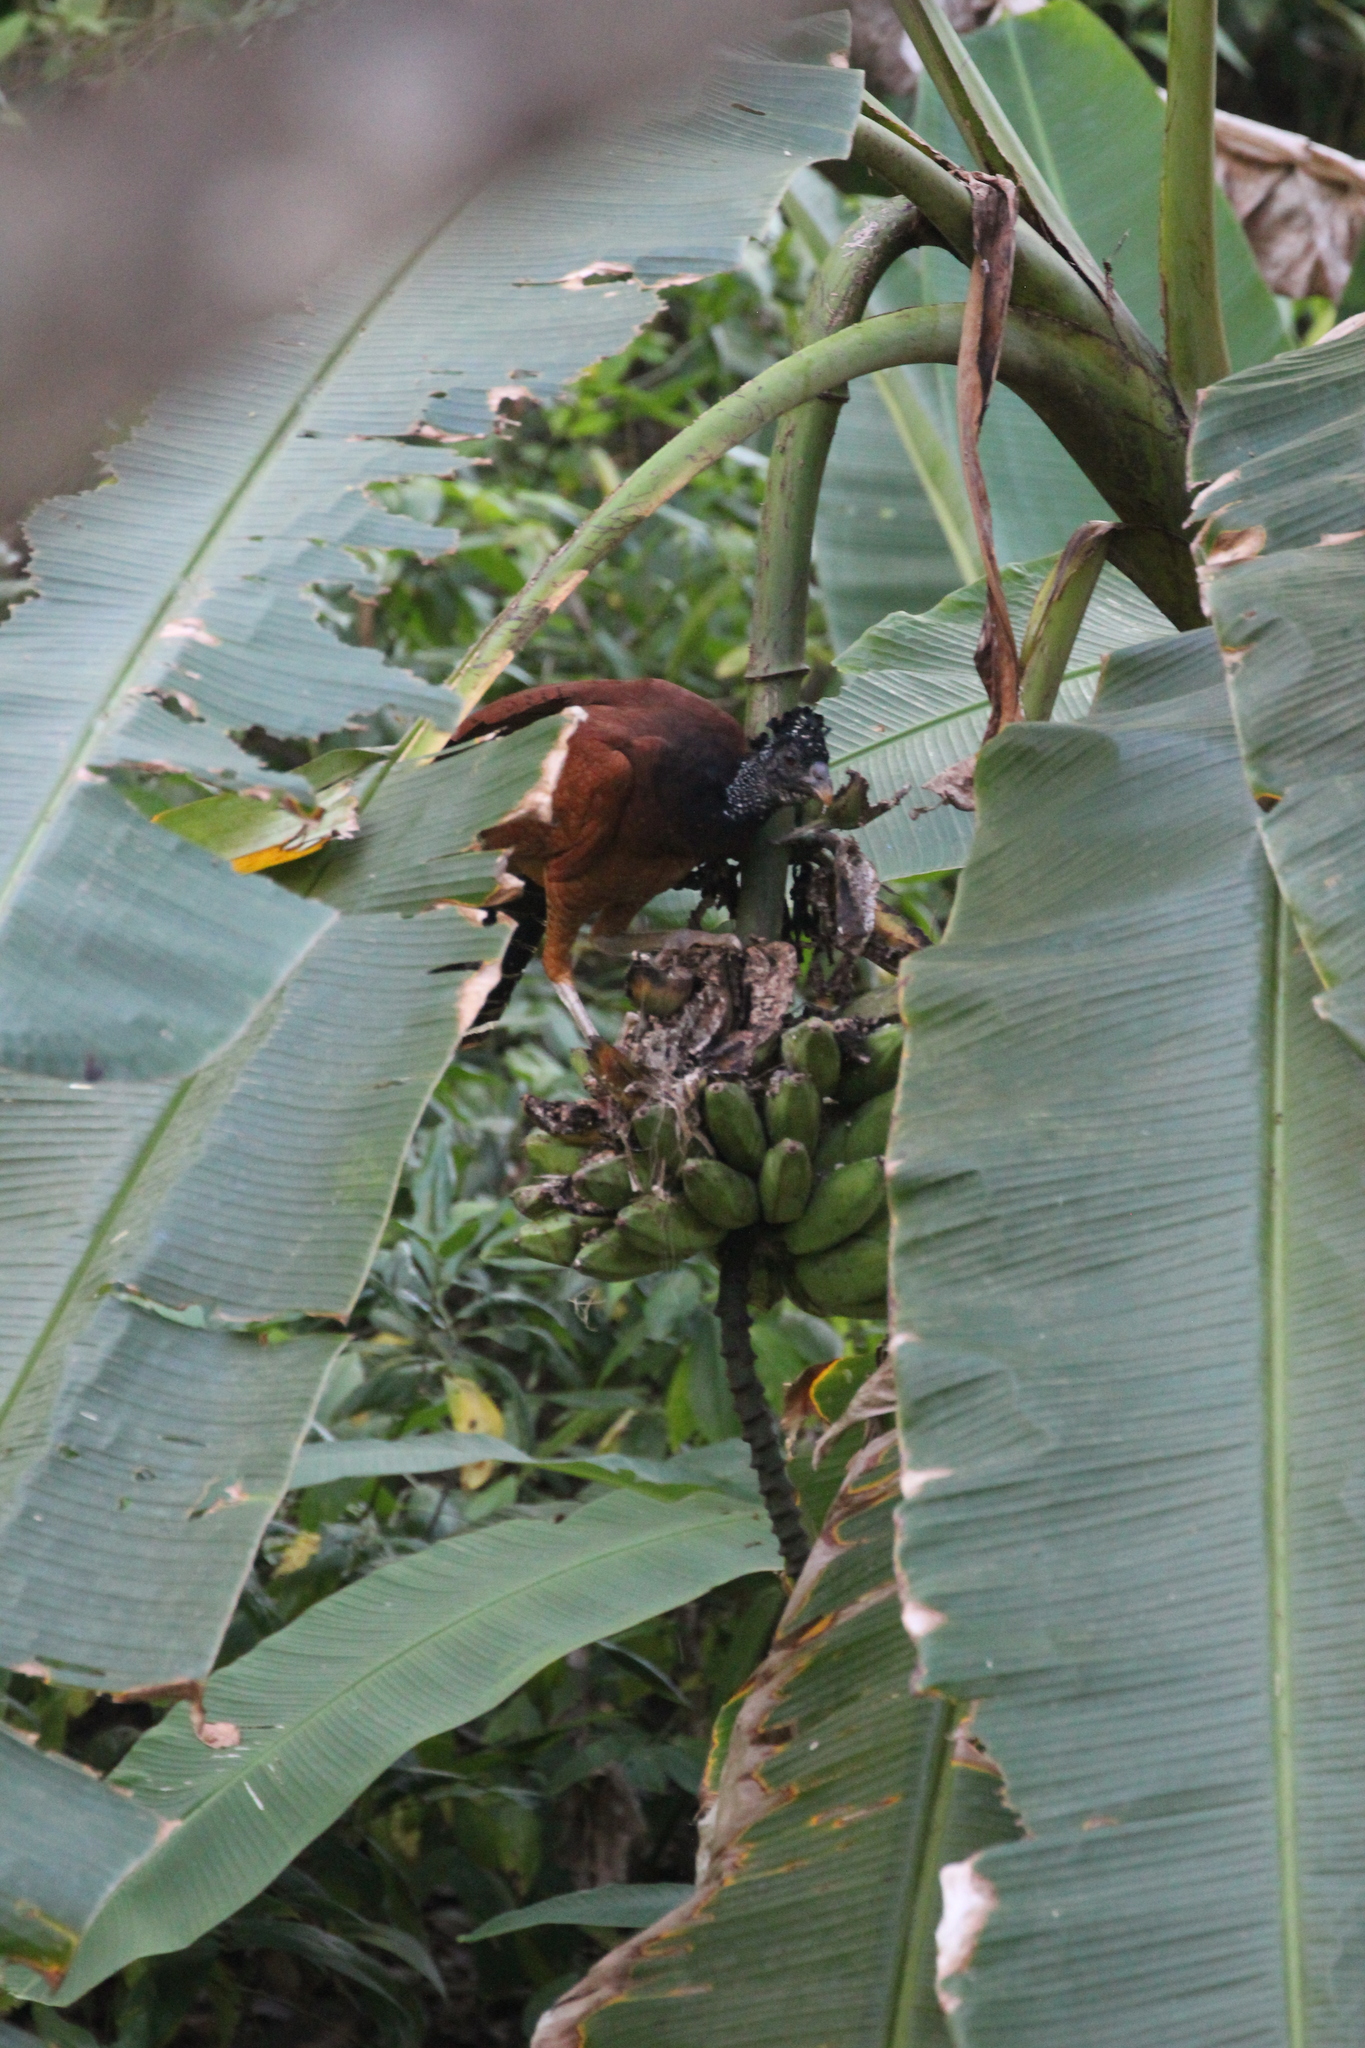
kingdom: Animalia
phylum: Chordata
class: Aves
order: Galliformes
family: Cracidae
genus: Crax
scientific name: Crax rubra
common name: Great curassow
